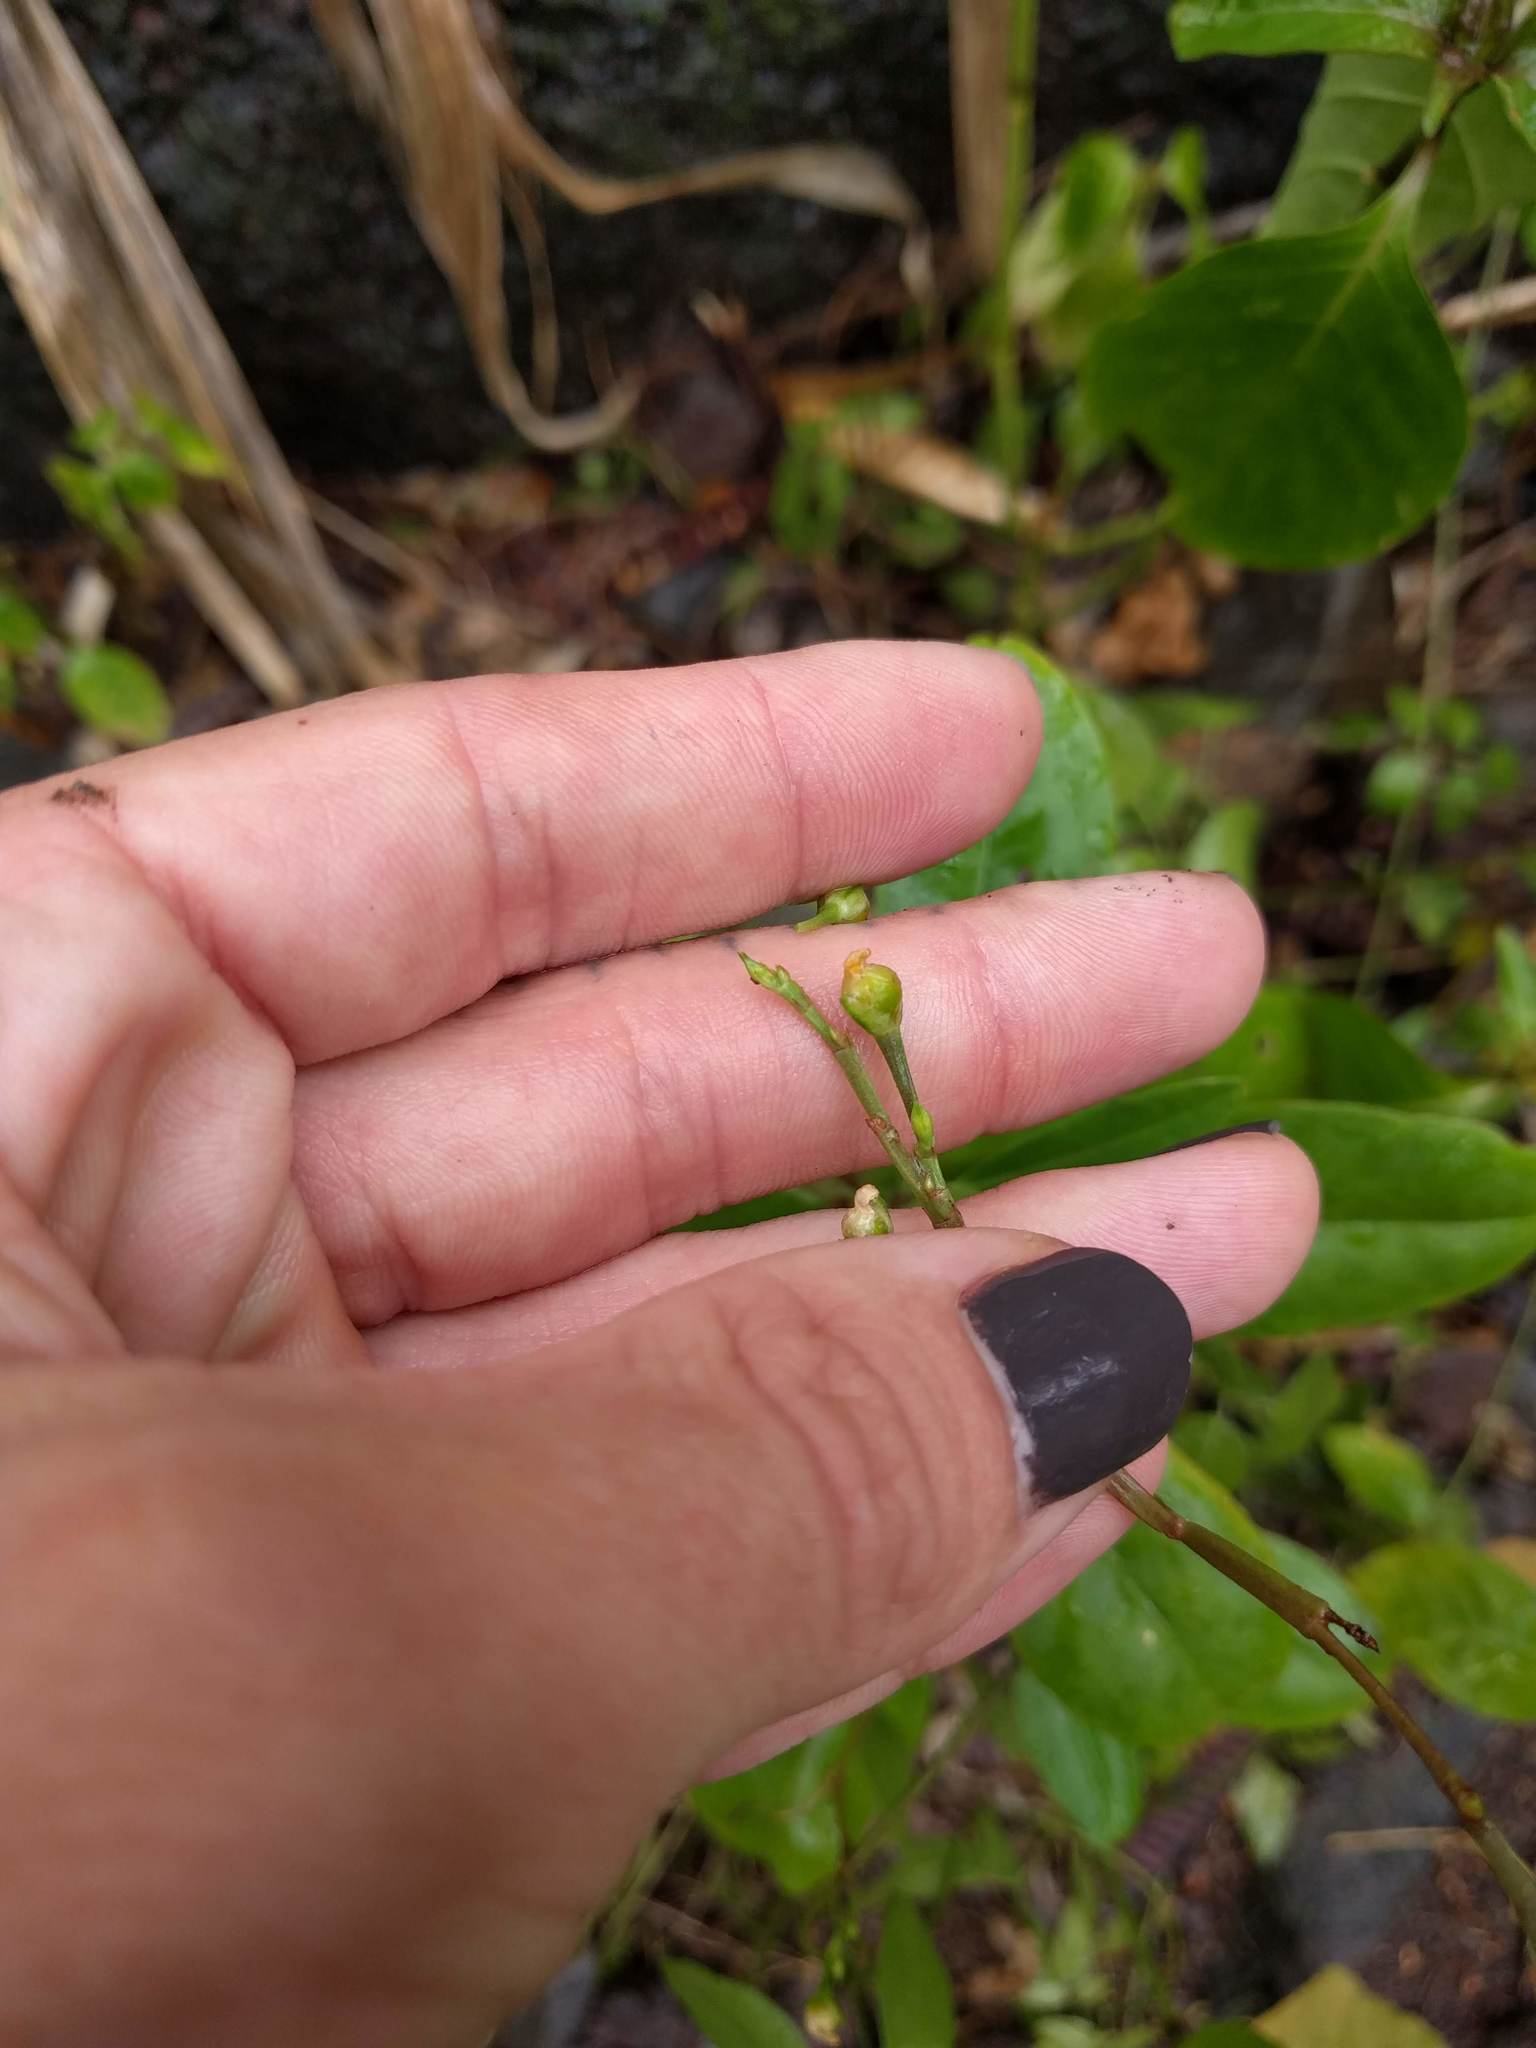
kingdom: Plantae
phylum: Tracheophyta
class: Magnoliopsida
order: Caryophyllales
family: Talinaceae
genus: Talinum
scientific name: Talinum fruticosum
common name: Verdolaga-francesa
